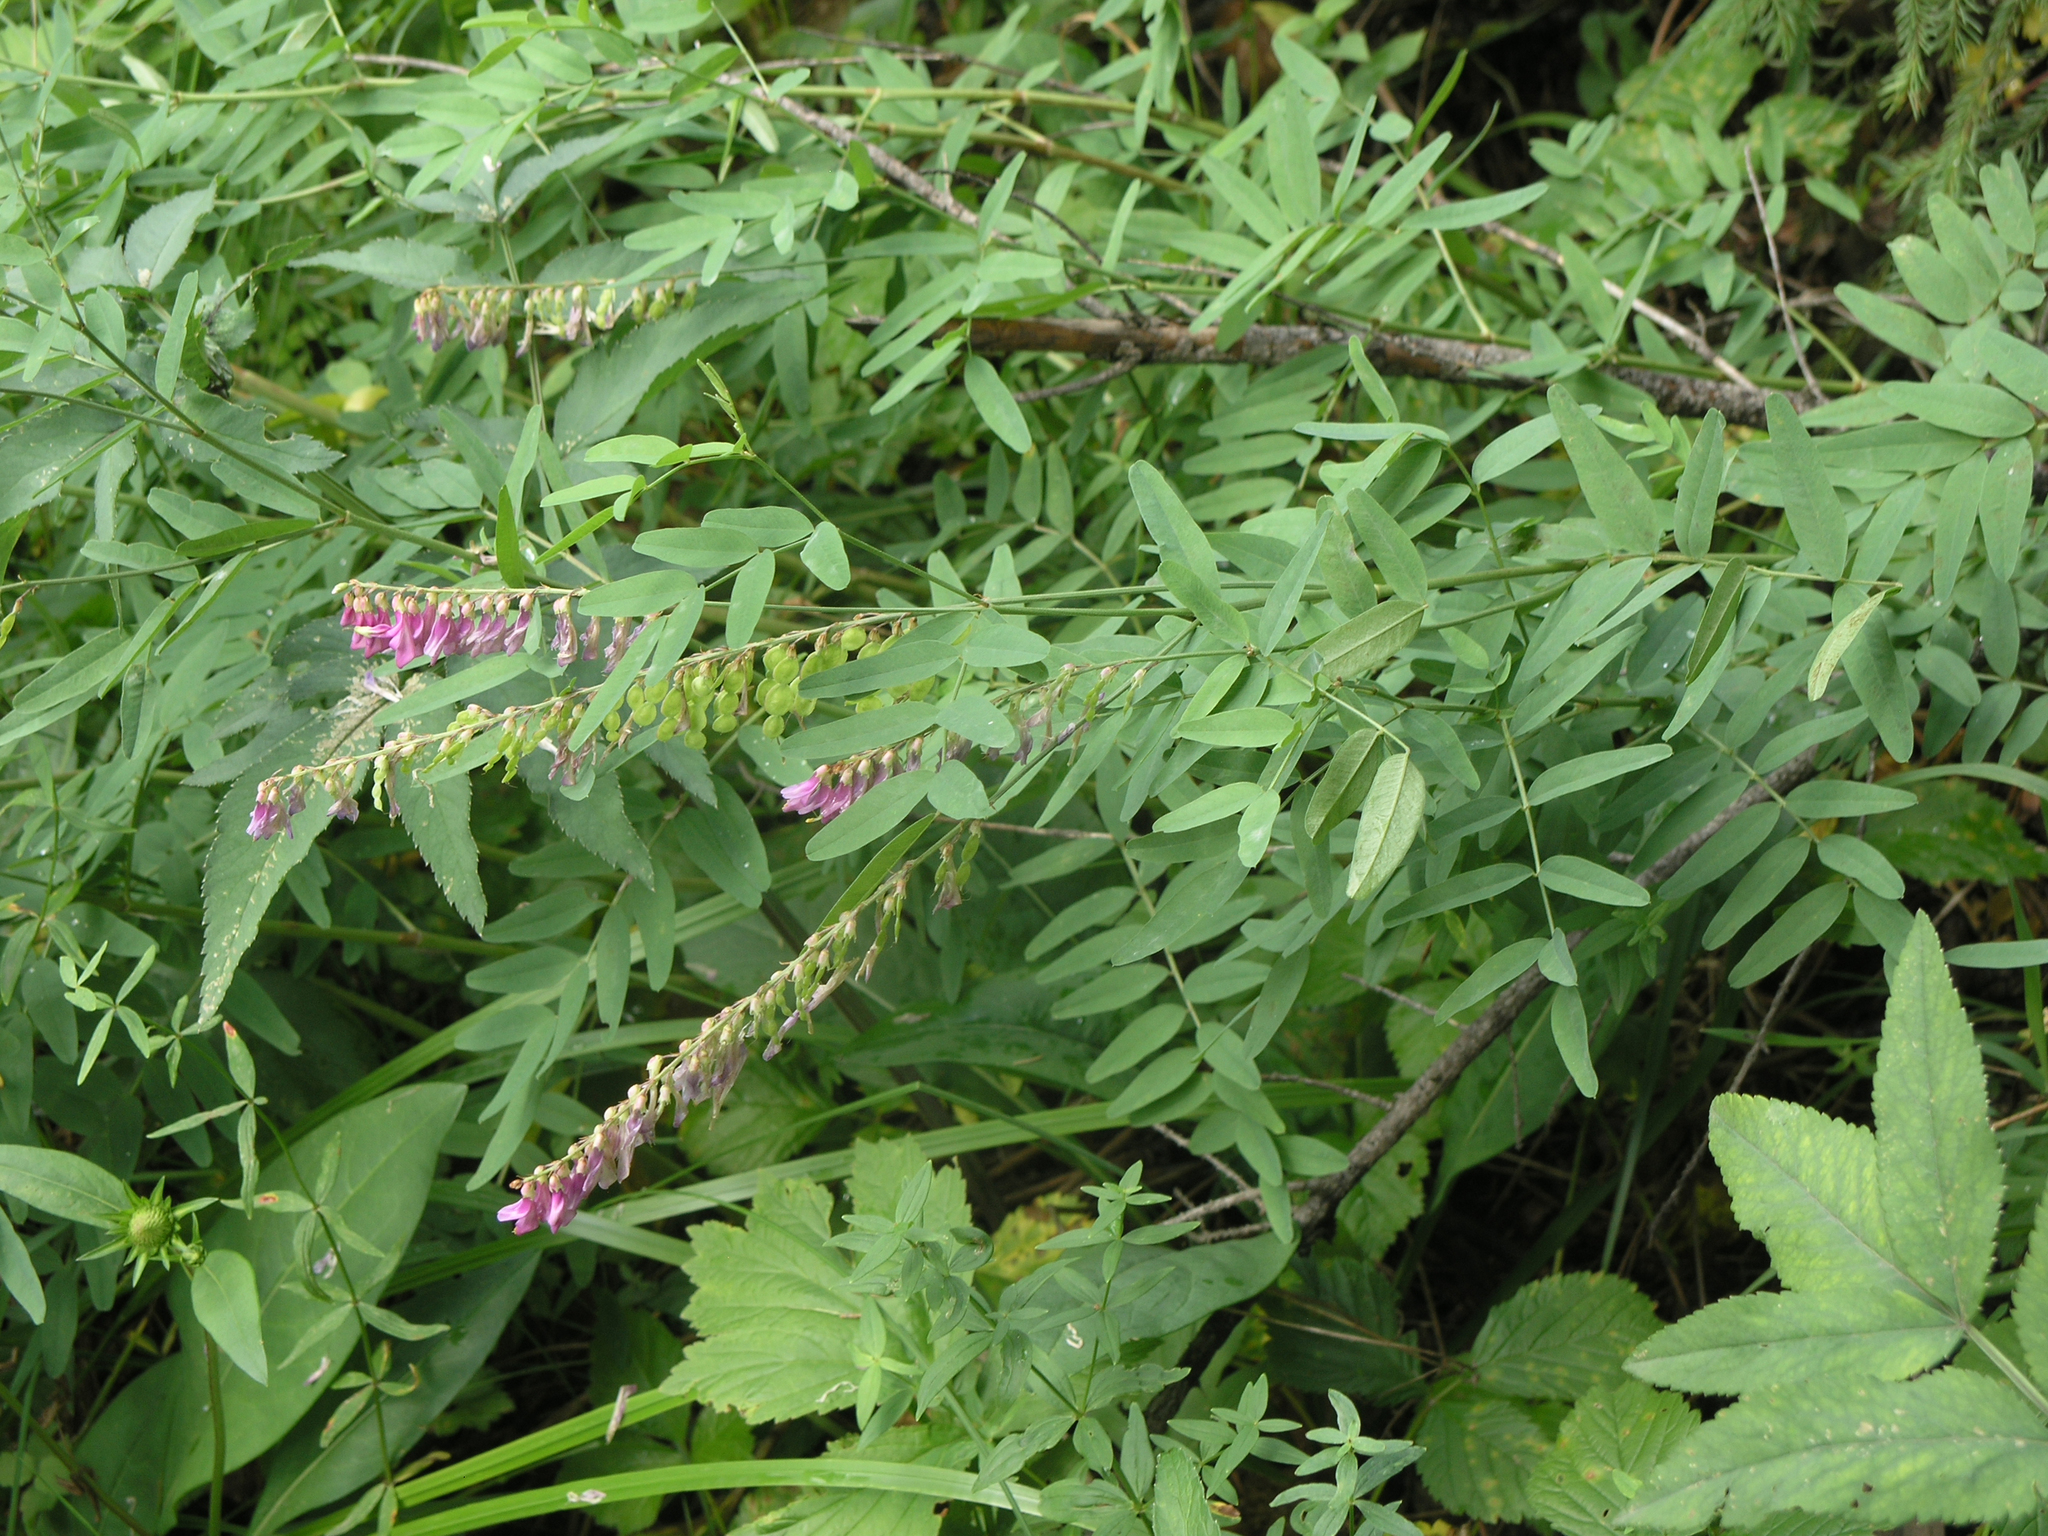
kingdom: Plantae
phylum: Tracheophyta
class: Magnoliopsida
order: Fabales
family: Fabaceae
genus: Hedysarum
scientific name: Hedysarum alpinum
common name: Alpine sweet-vetch
